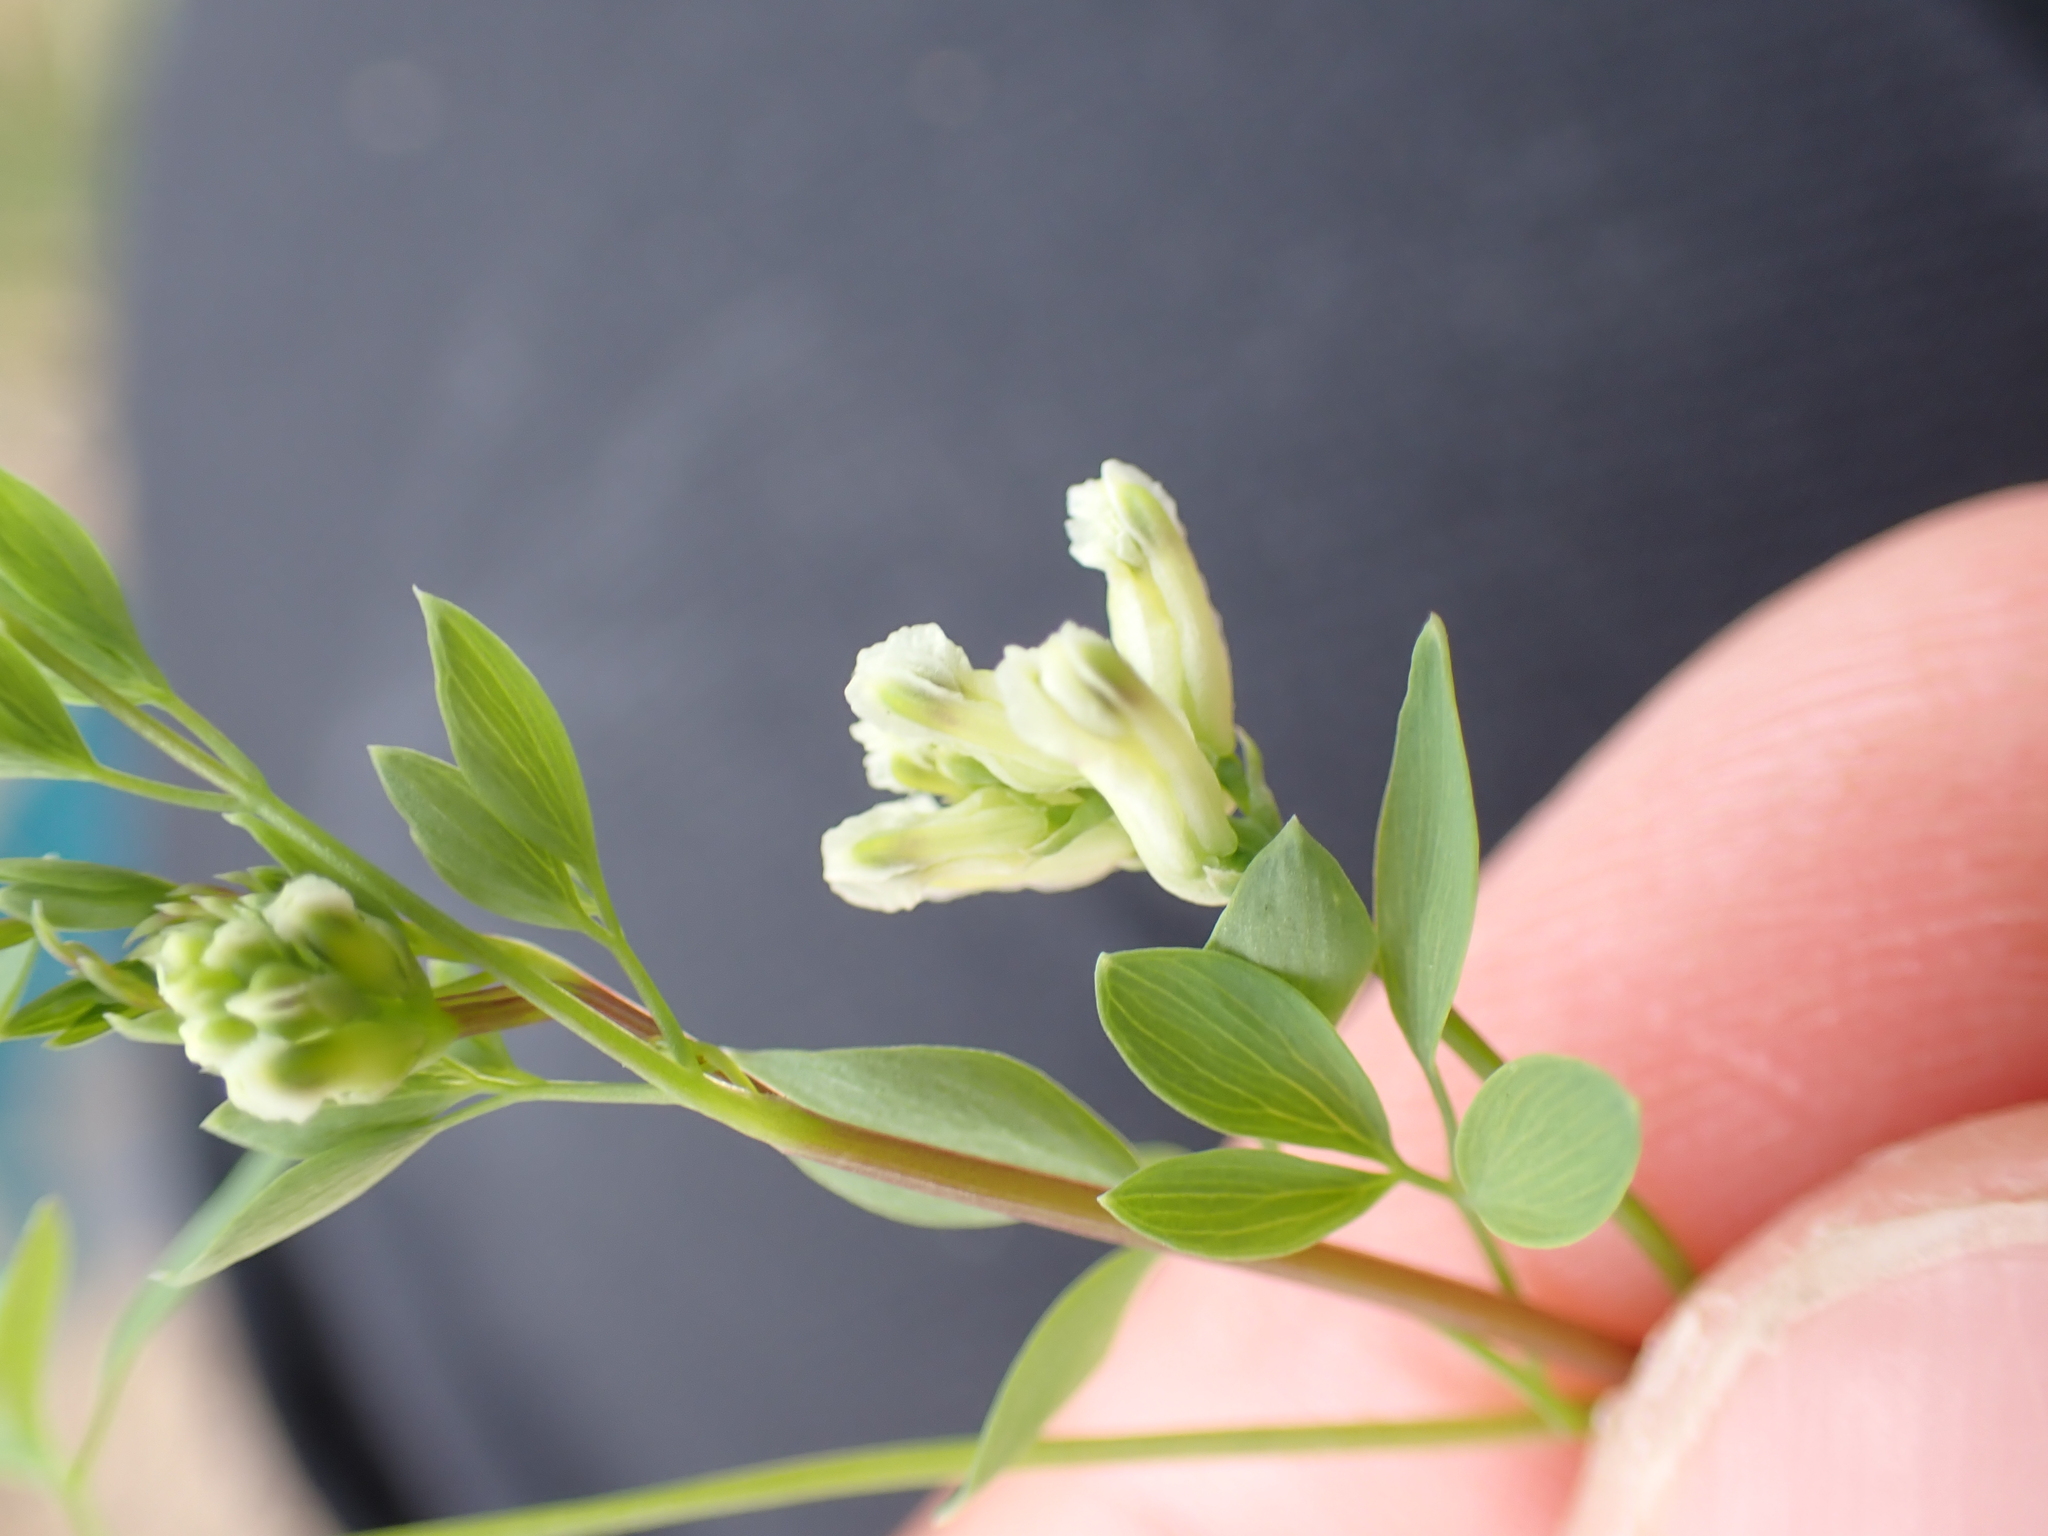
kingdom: Plantae
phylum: Tracheophyta
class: Magnoliopsida
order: Ranunculales
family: Papaveraceae
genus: Ceratocapnos
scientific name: Ceratocapnos claviculata
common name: Climbing corydalis
